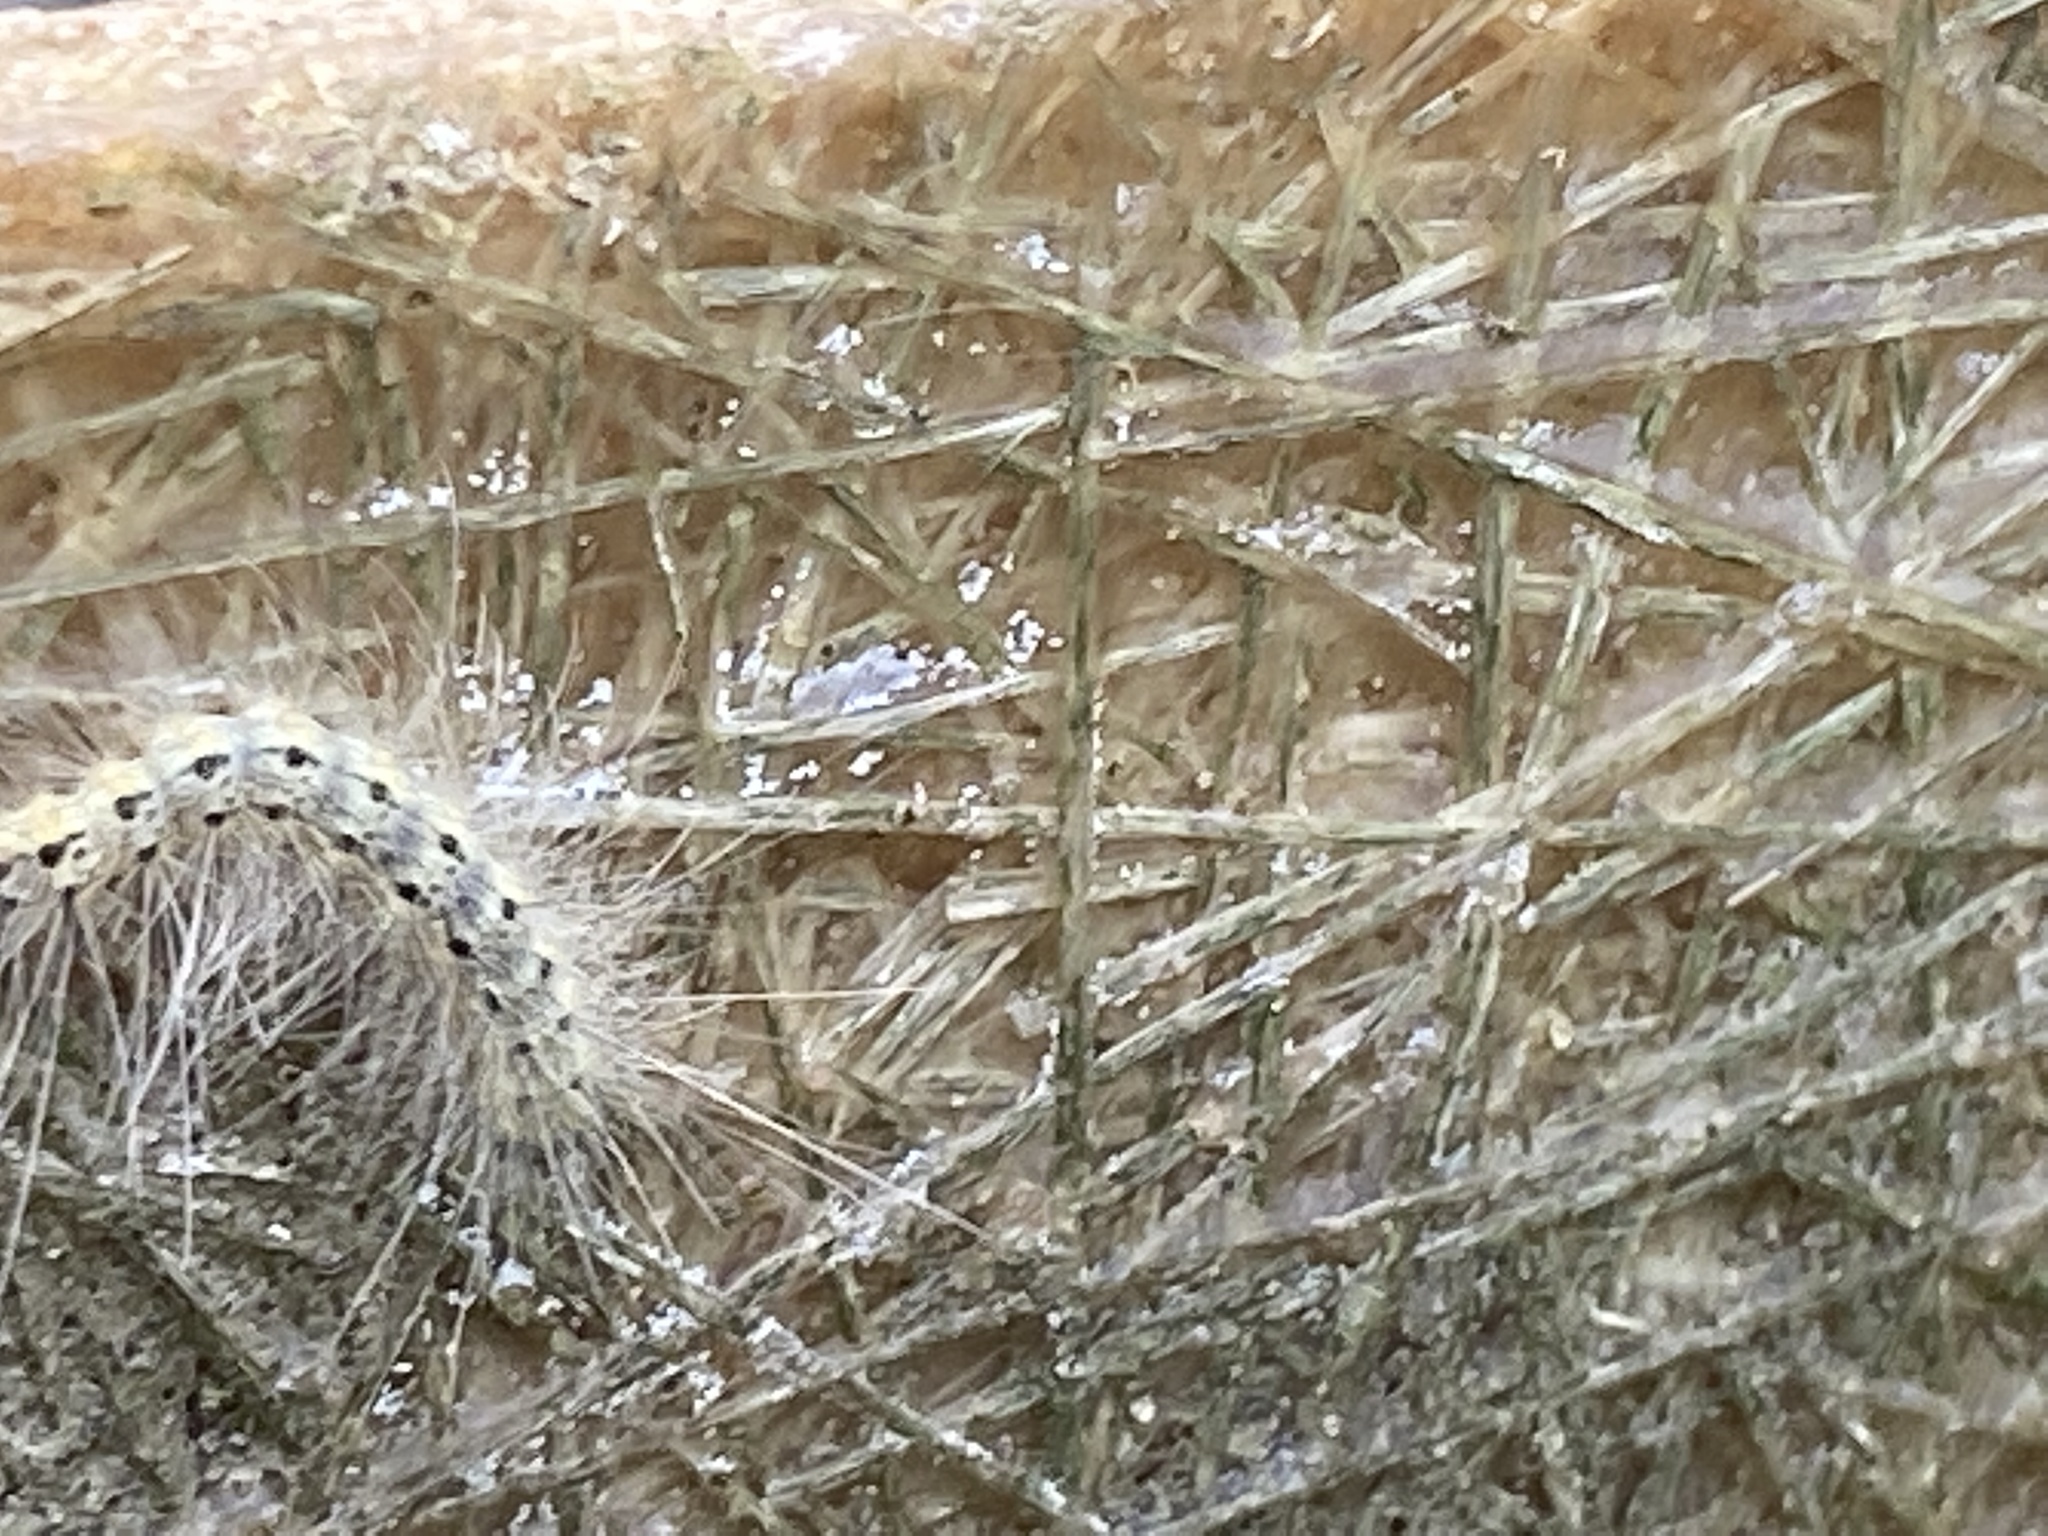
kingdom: Animalia
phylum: Arthropoda
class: Insecta
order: Lepidoptera
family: Erebidae
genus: Hyphantria
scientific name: Hyphantria cunea
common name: American white moth
